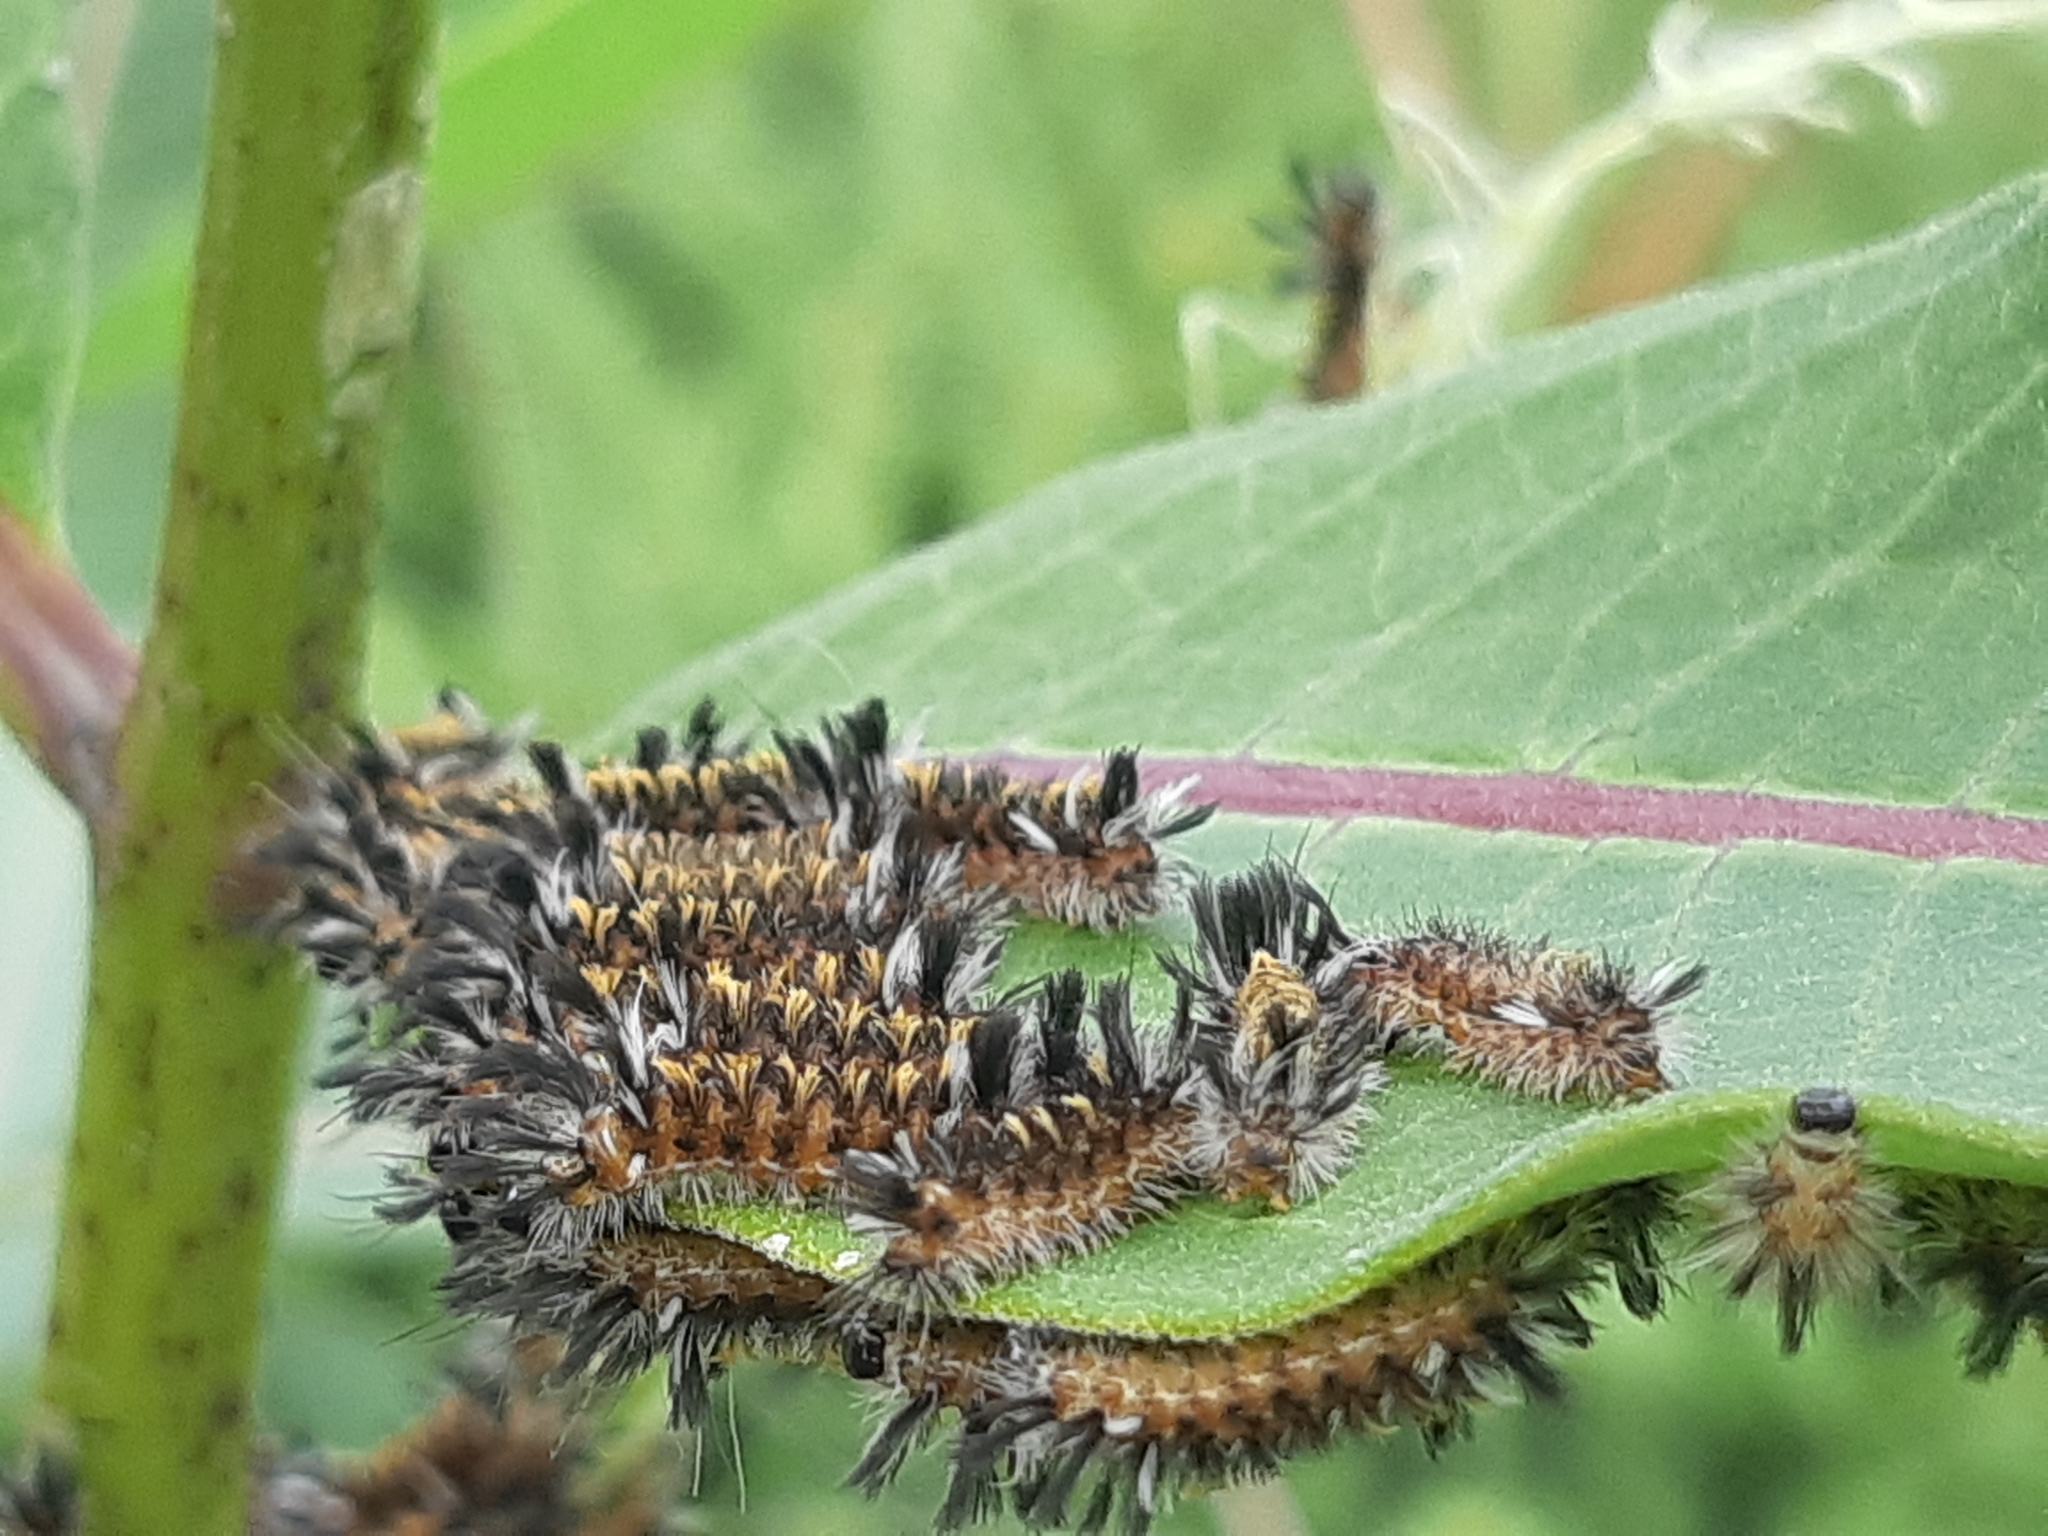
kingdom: Animalia
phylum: Arthropoda
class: Insecta
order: Lepidoptera
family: Erebidae
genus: Euchaetes
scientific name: Euchaetes egle
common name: Milkweed tussock moth
